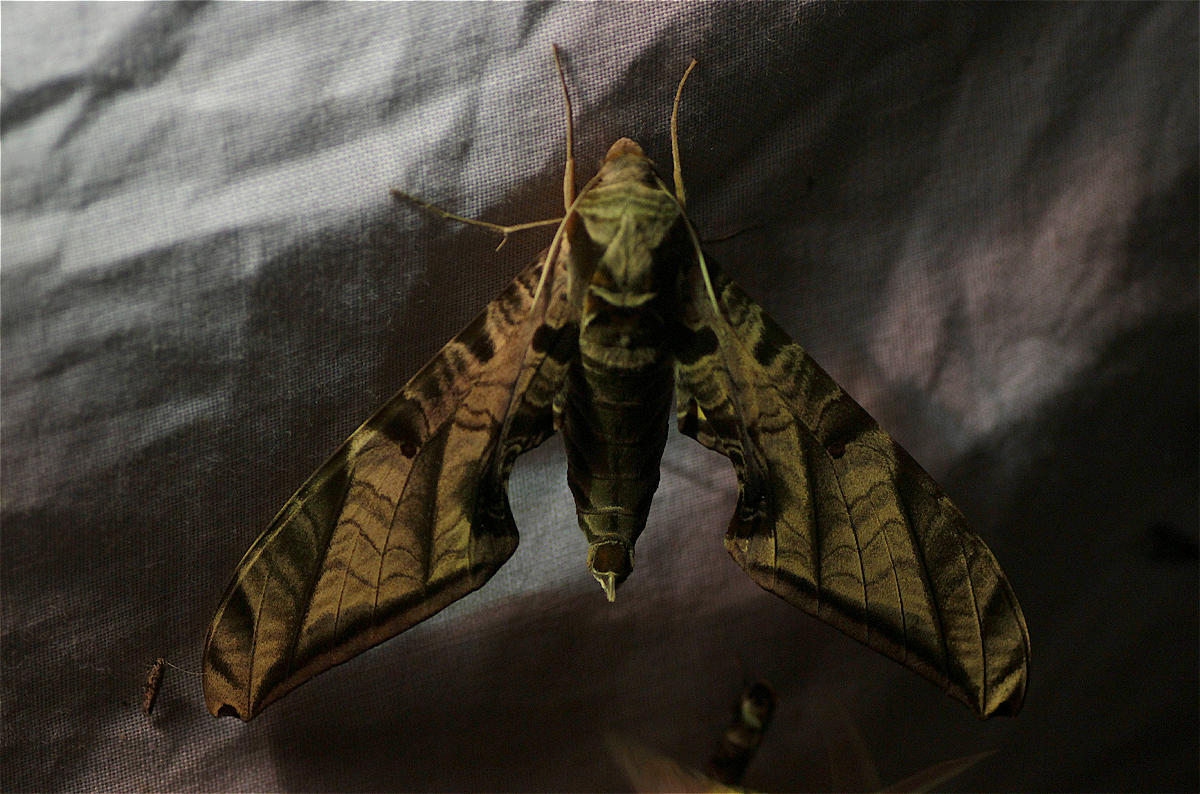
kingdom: Animalia
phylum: Arthropoda
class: Insecta
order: Lepidoptera
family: Sphingidae
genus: Protambulyx
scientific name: Protambulyx euryalus
